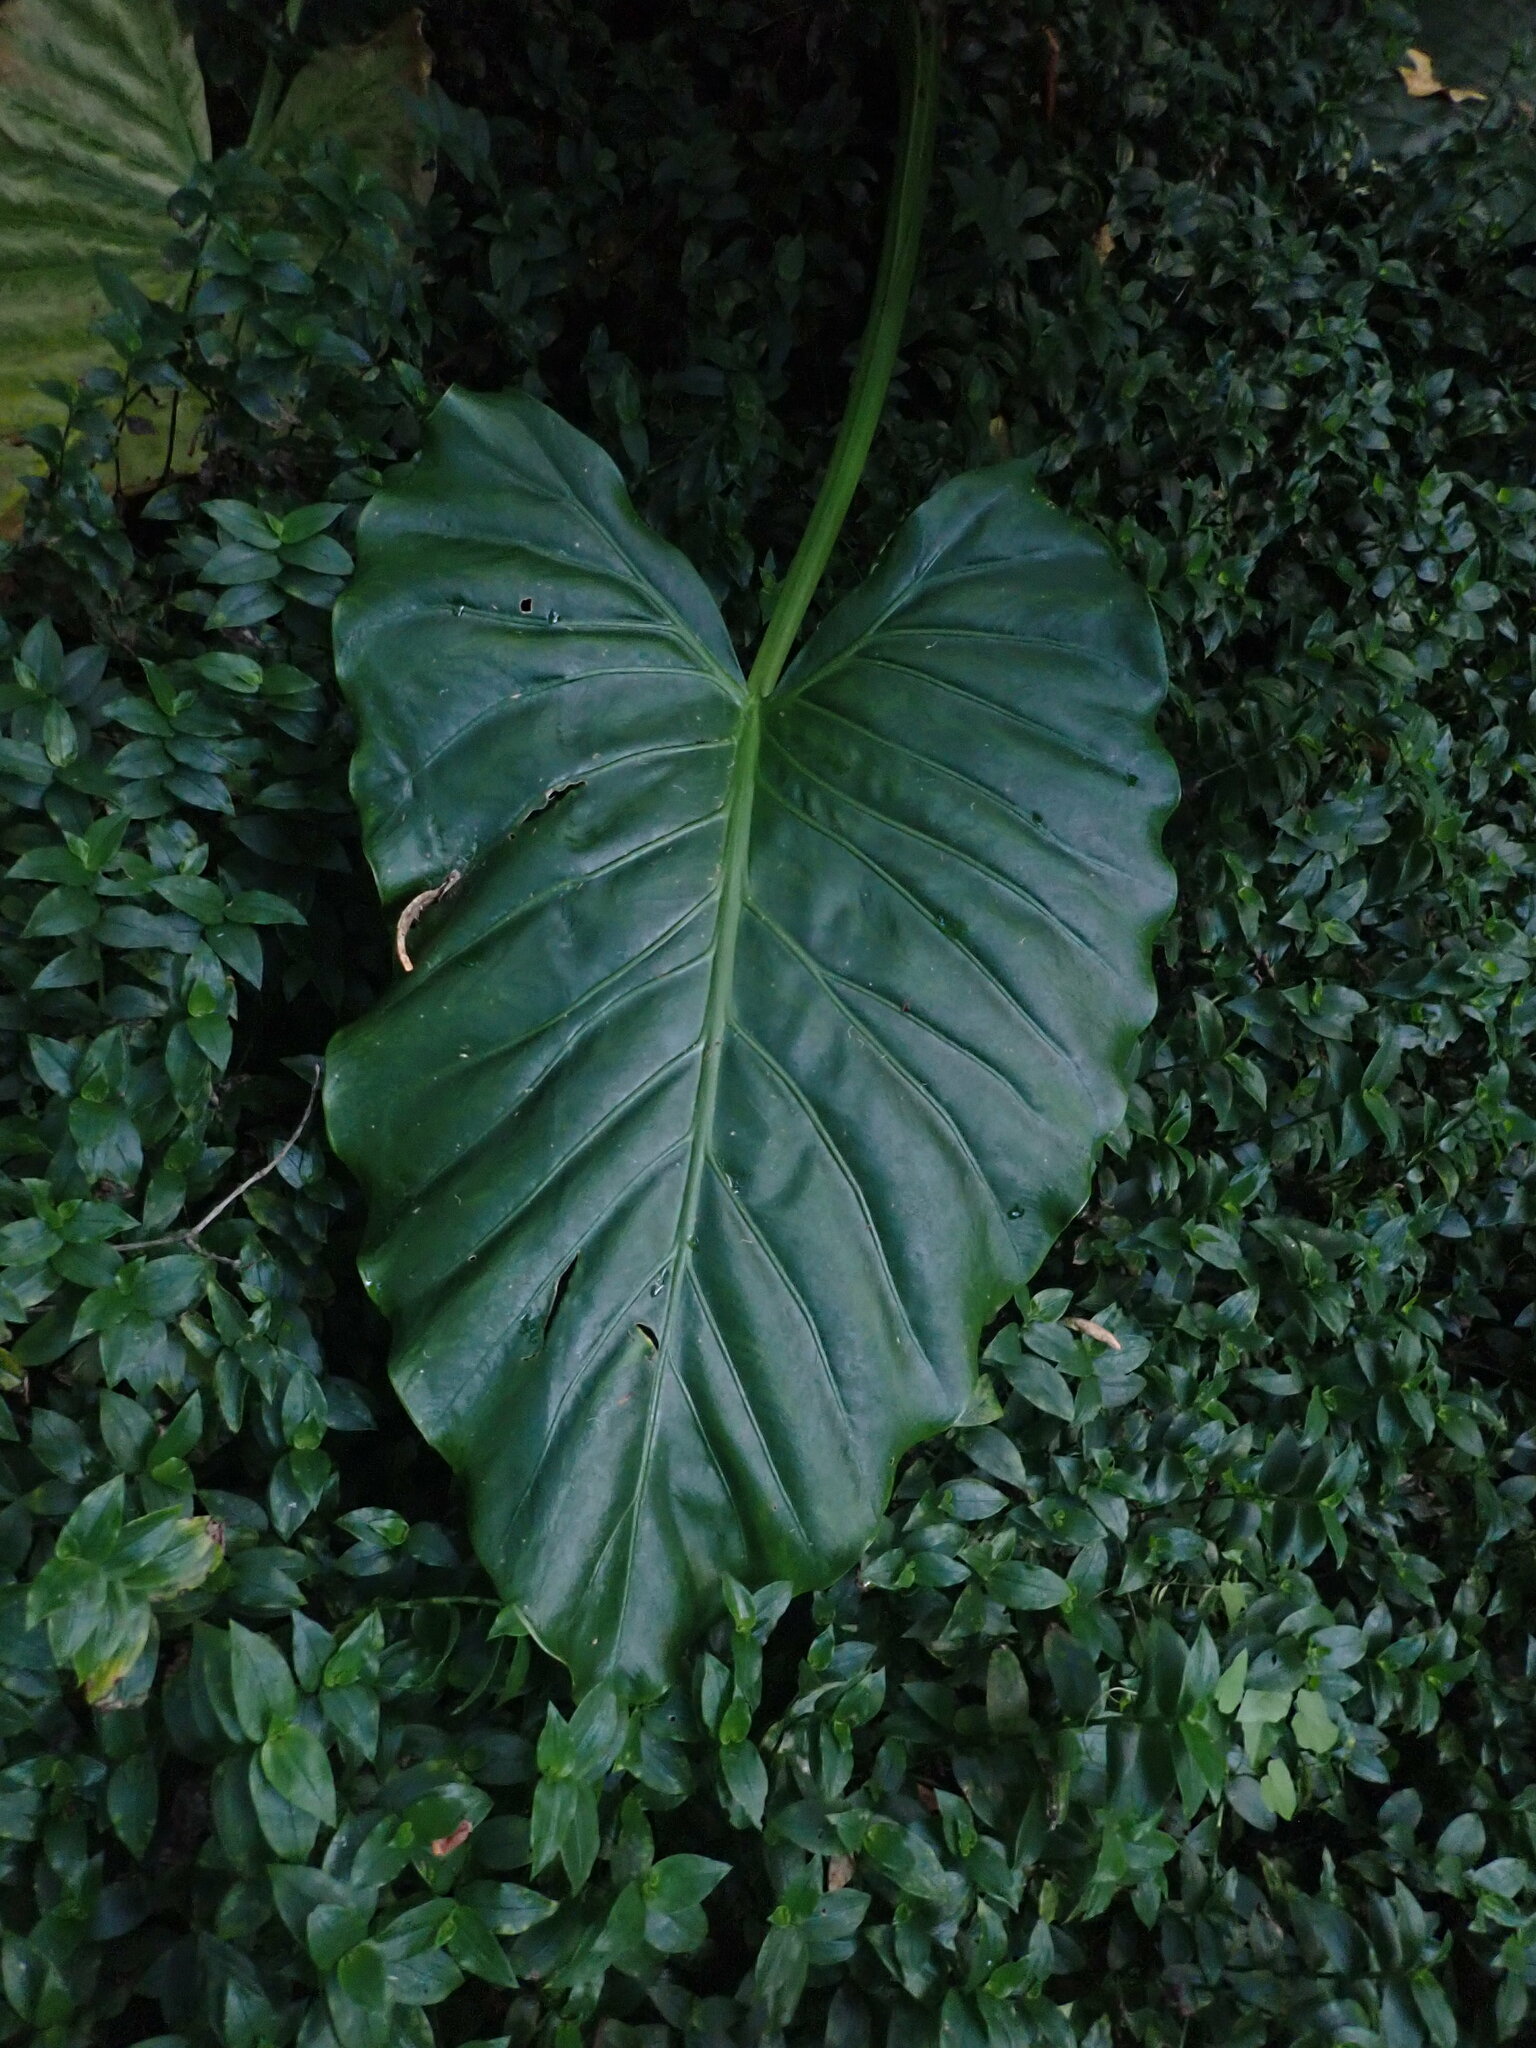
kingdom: Plantae
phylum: Tracheophyta
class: Liliopsida
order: Alismatales
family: Araceae
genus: Alocasia
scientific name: Alocasia brisbanensis
